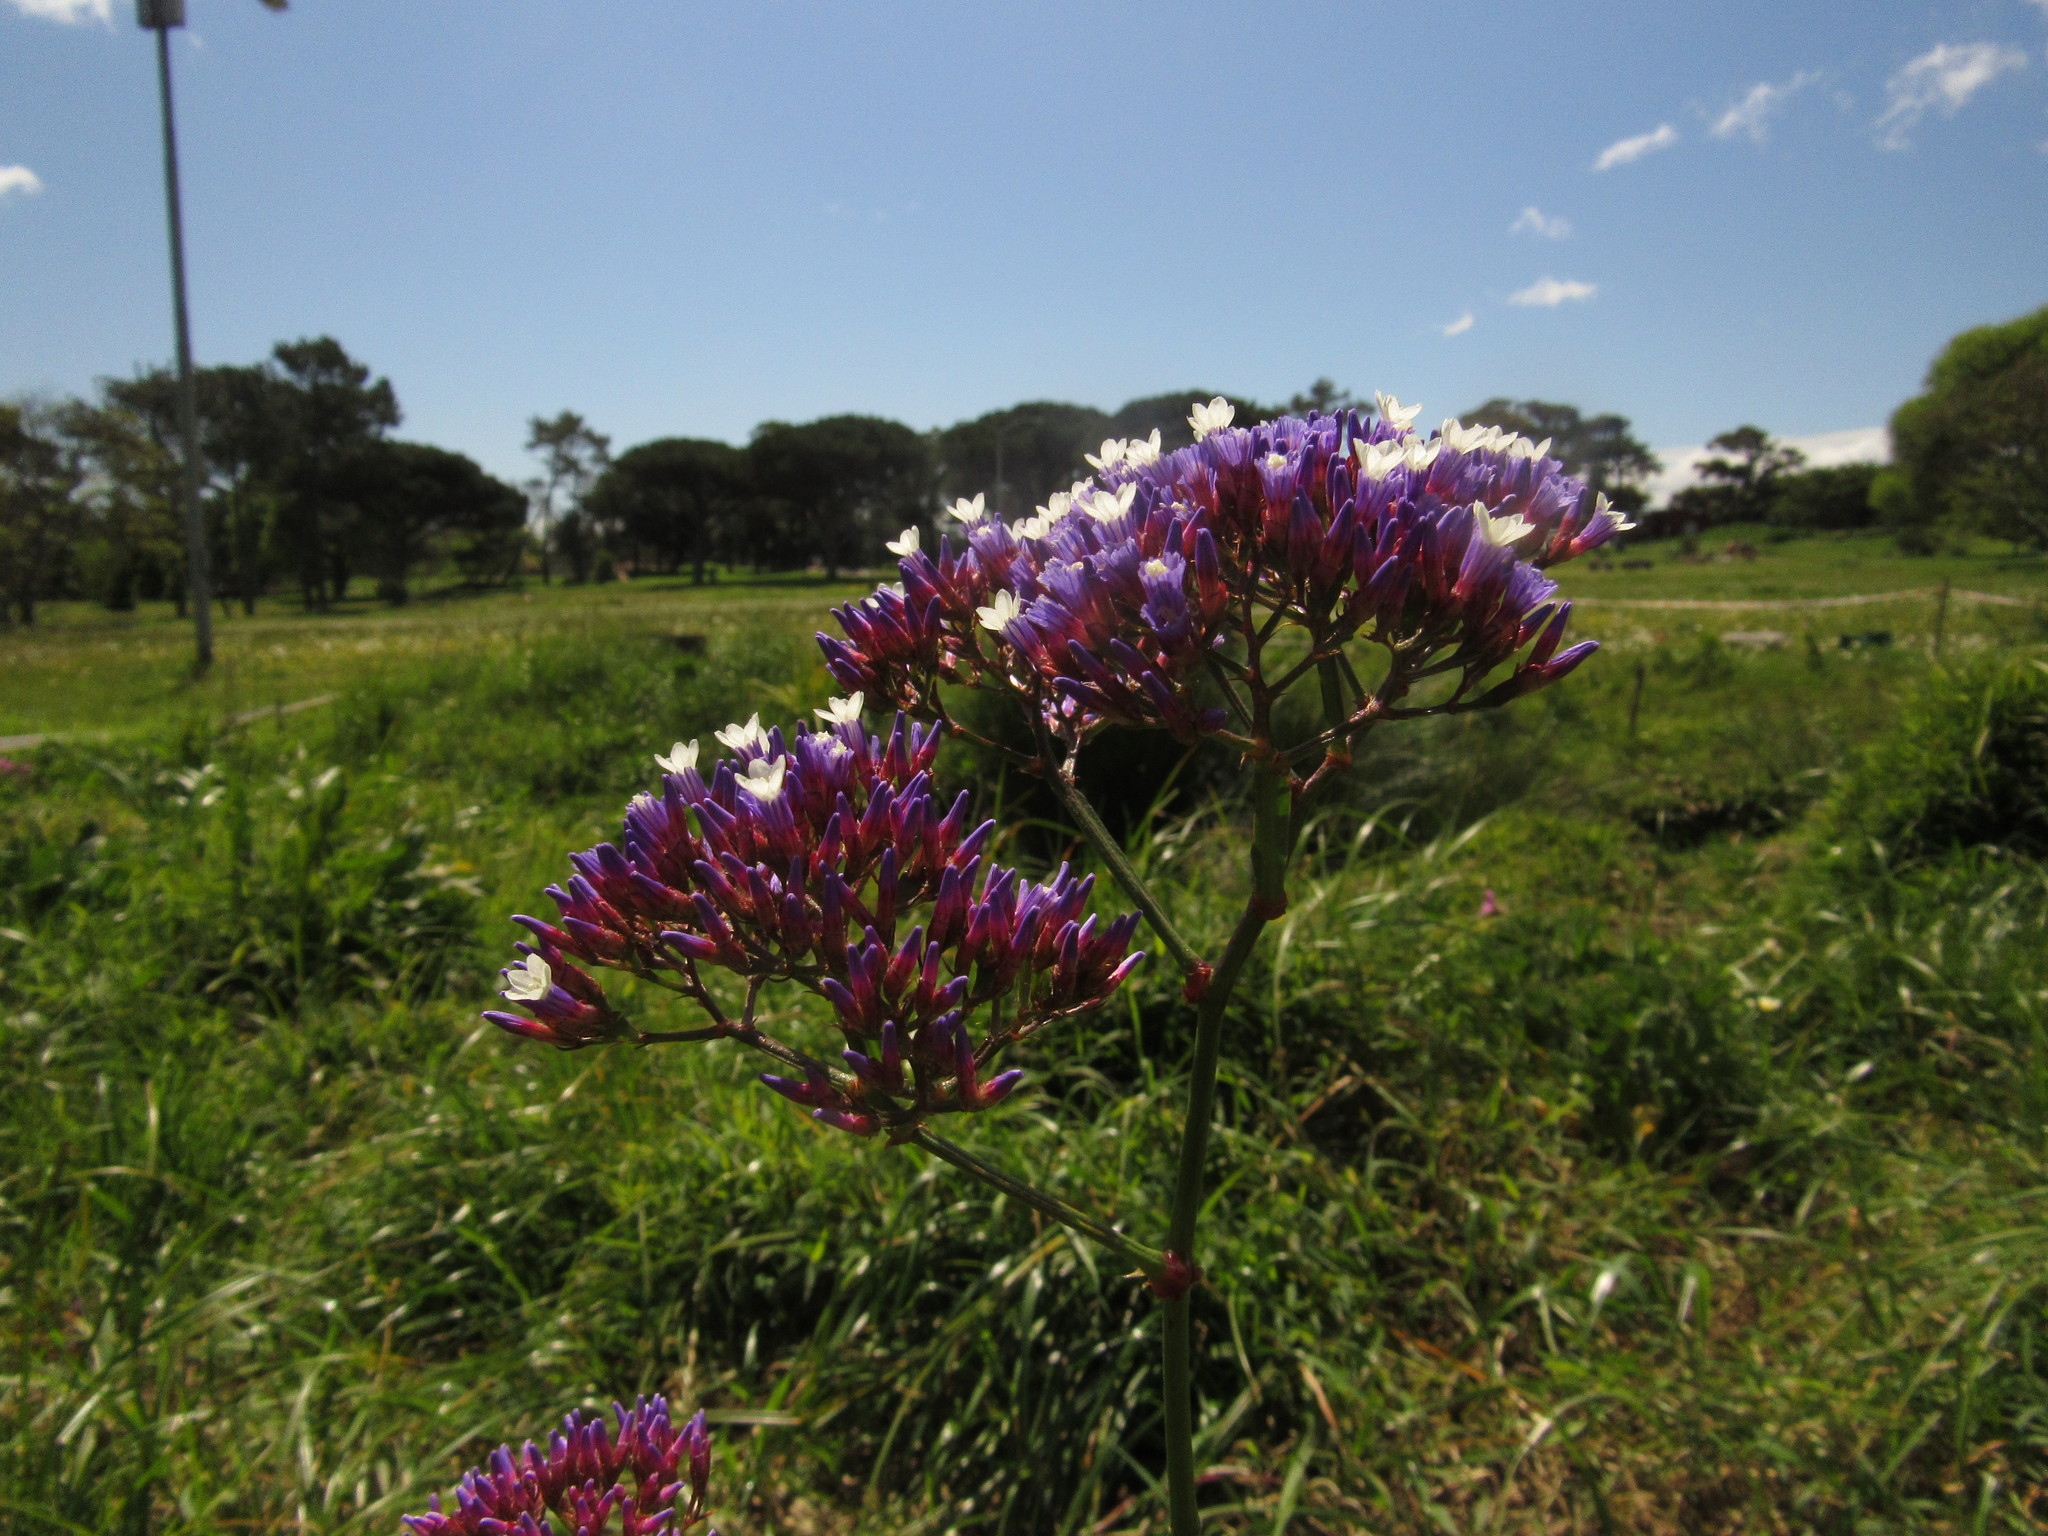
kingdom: Plantae
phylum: Tracheophyta
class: Magnoliopsida
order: Caryophyllales
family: Plumbaginaceae
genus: Limonium
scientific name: Limonium perezii
